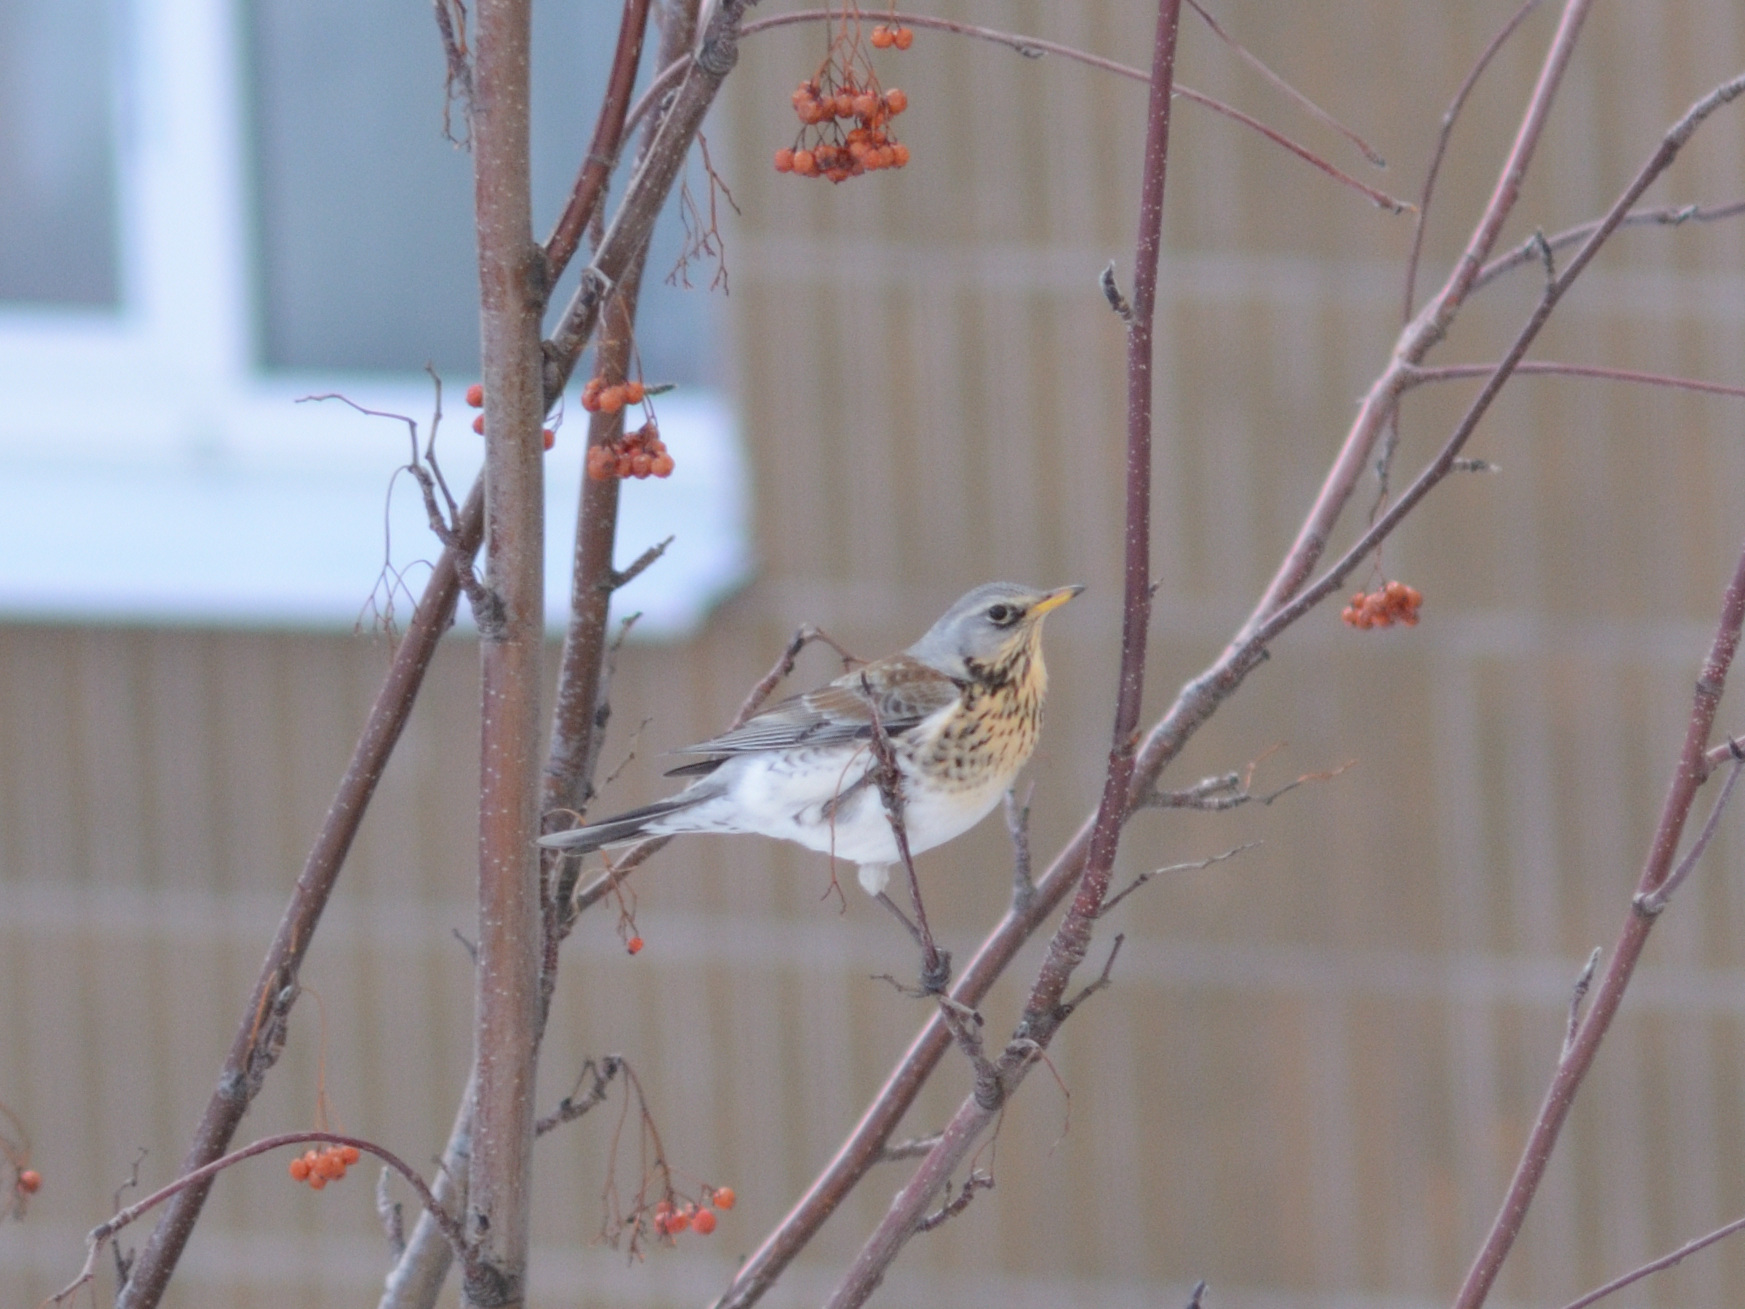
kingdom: Animalia
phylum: Chordata
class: Aves
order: Passeriformes
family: Turdidae
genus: Turdus
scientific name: Turdus pilaris
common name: Fieldfare
